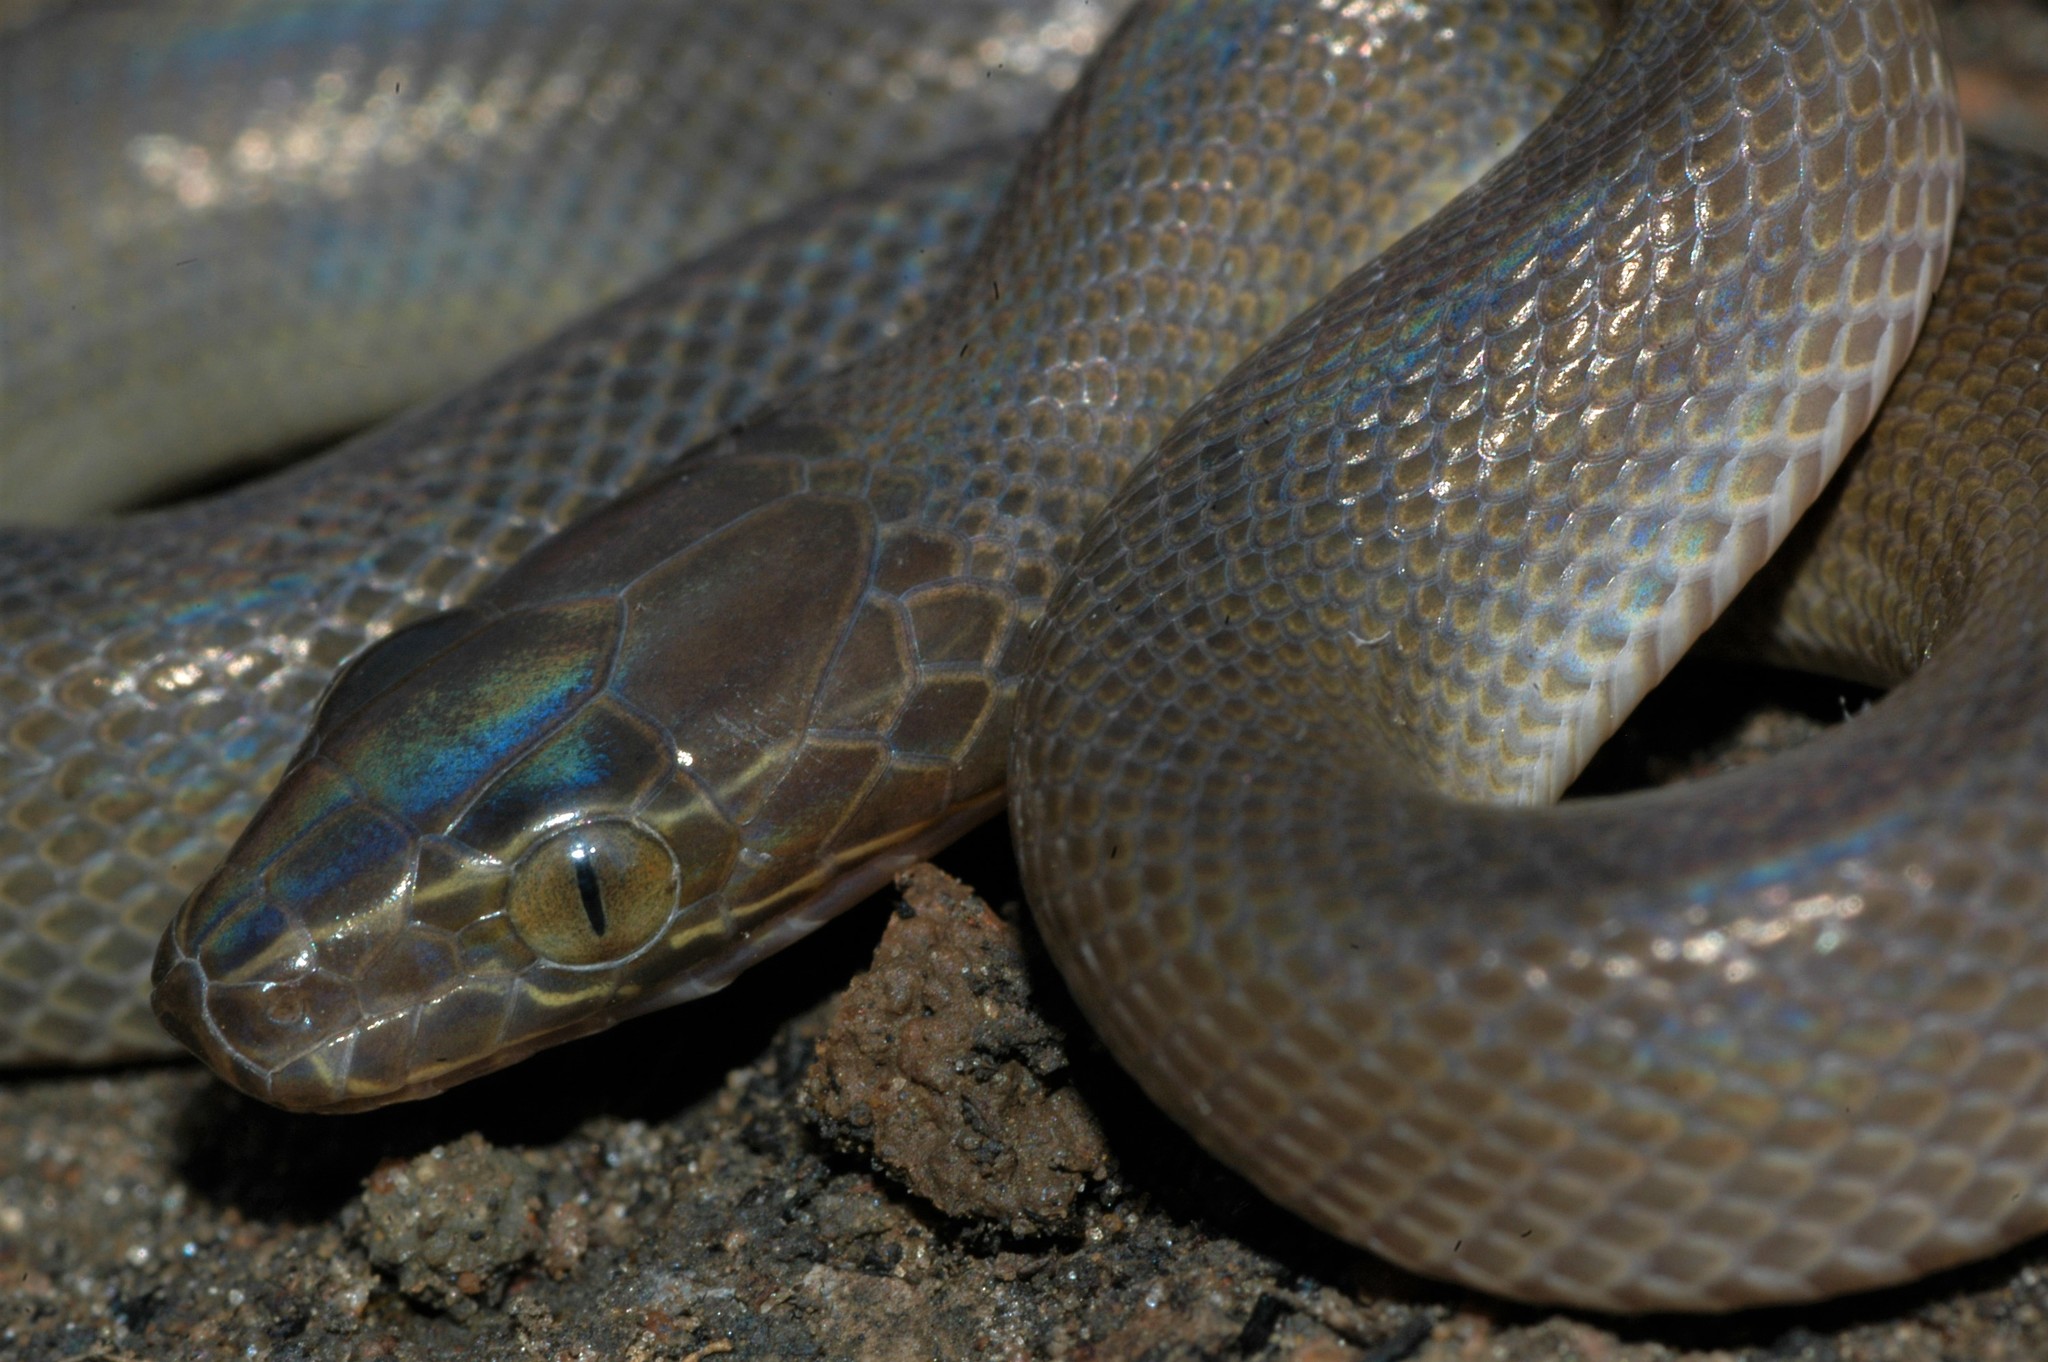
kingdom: Animalia
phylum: Chordata
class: Squamata
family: Lamprophiidae
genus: Boaedon
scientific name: Boaedon fuliginosus
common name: African house snake
